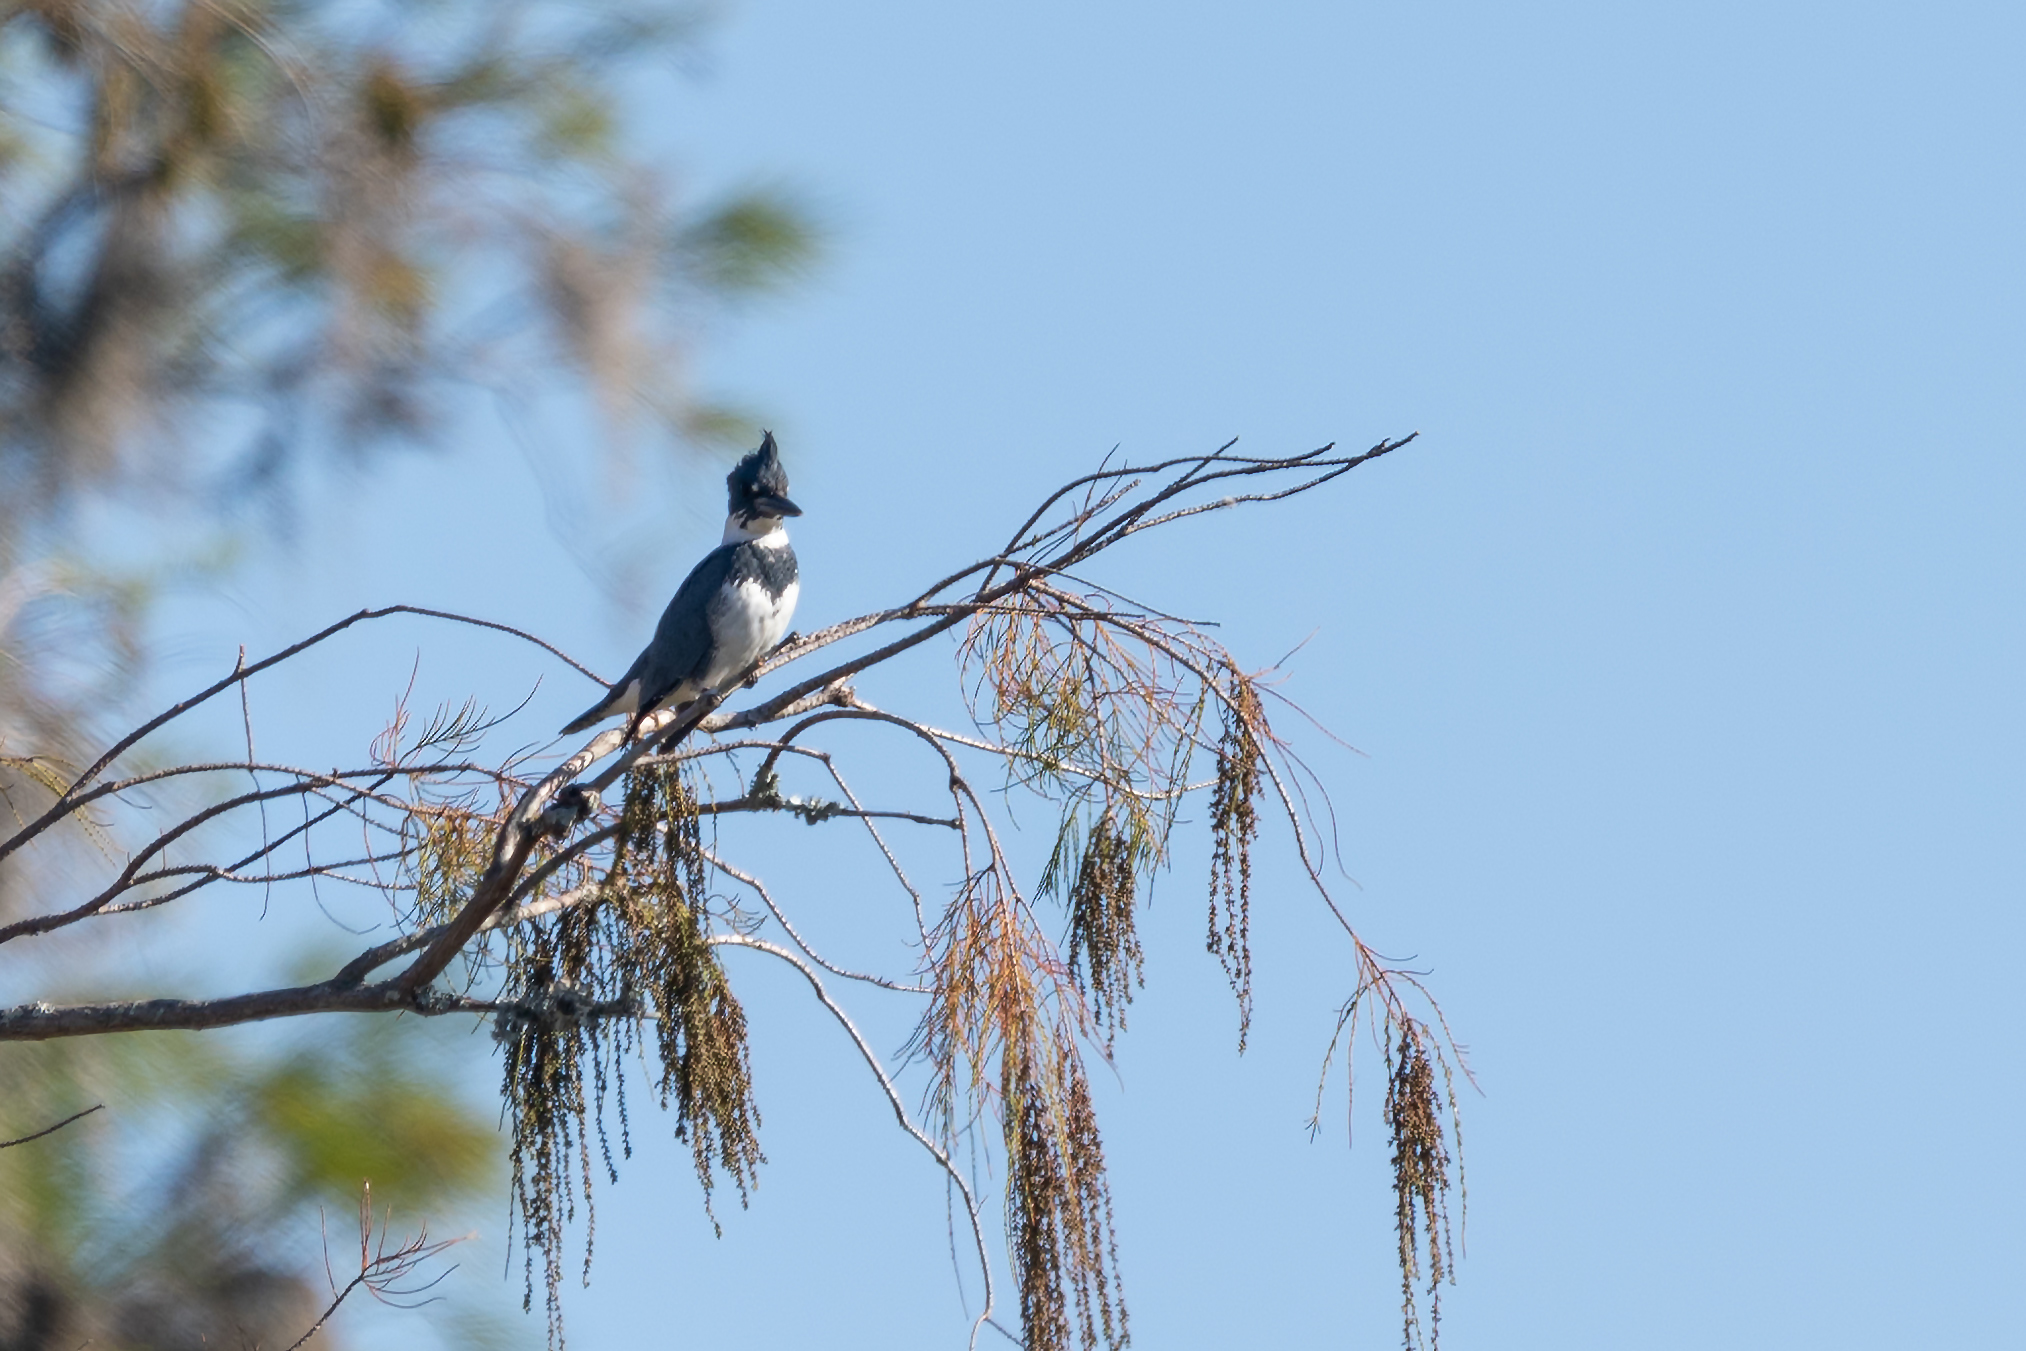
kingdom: Animalia
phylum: Chordata
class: Aves
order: Coraciiformes
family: Alcedinidae
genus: Megaceryle
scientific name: Megaceryle alcyon
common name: Belted kingfisher
